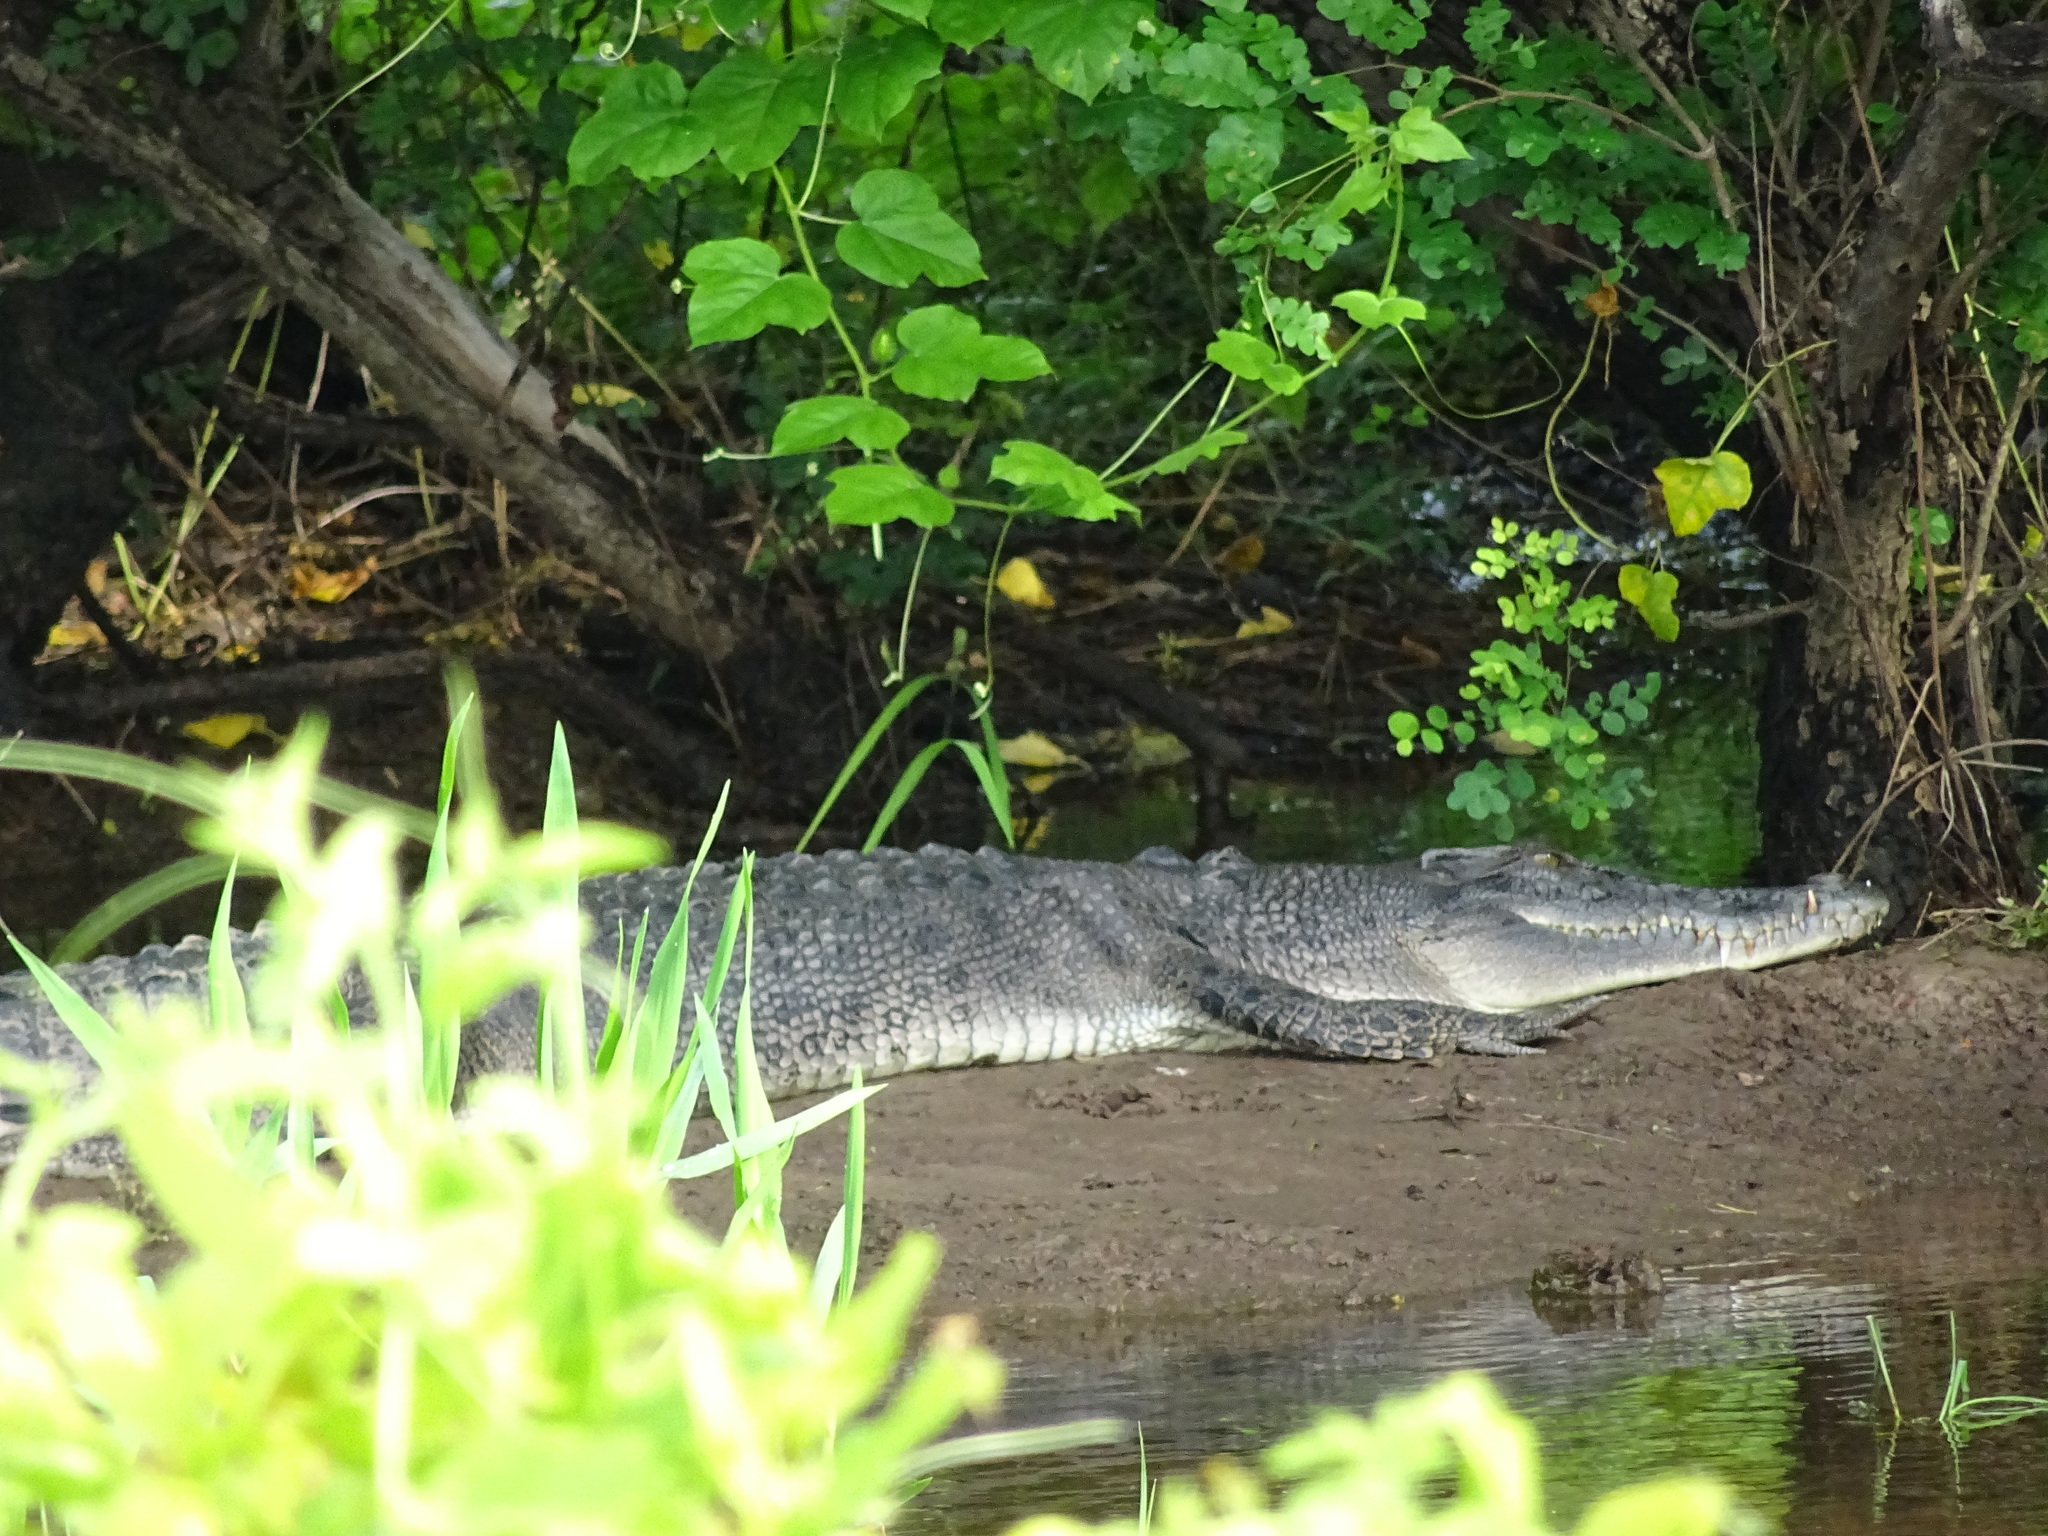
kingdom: Animalia
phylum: Chordata
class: Crocodylia
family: Crocodylidae
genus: Crocodylus
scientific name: Crocodylus porosus
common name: Saltwater crocodile
